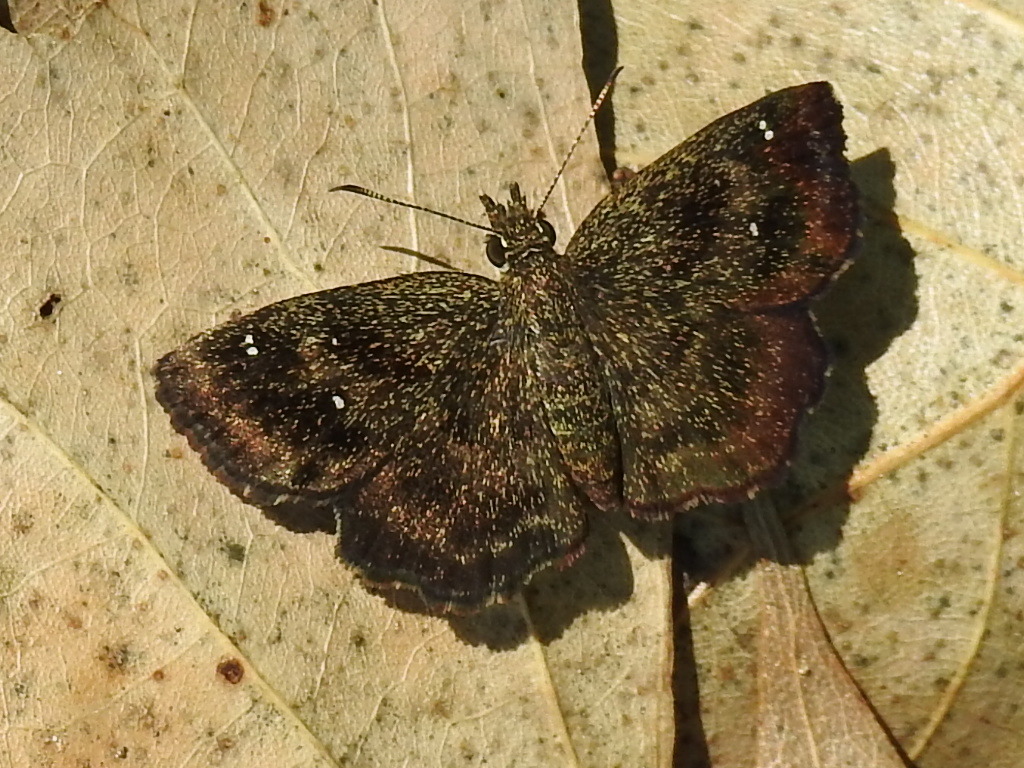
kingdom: Animalia
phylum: Arthropoda
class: Insecta
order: Lepidoptera
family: Hesperiidae
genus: Staphylus
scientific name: Staphylus mazans
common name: Mazans scallopwing
